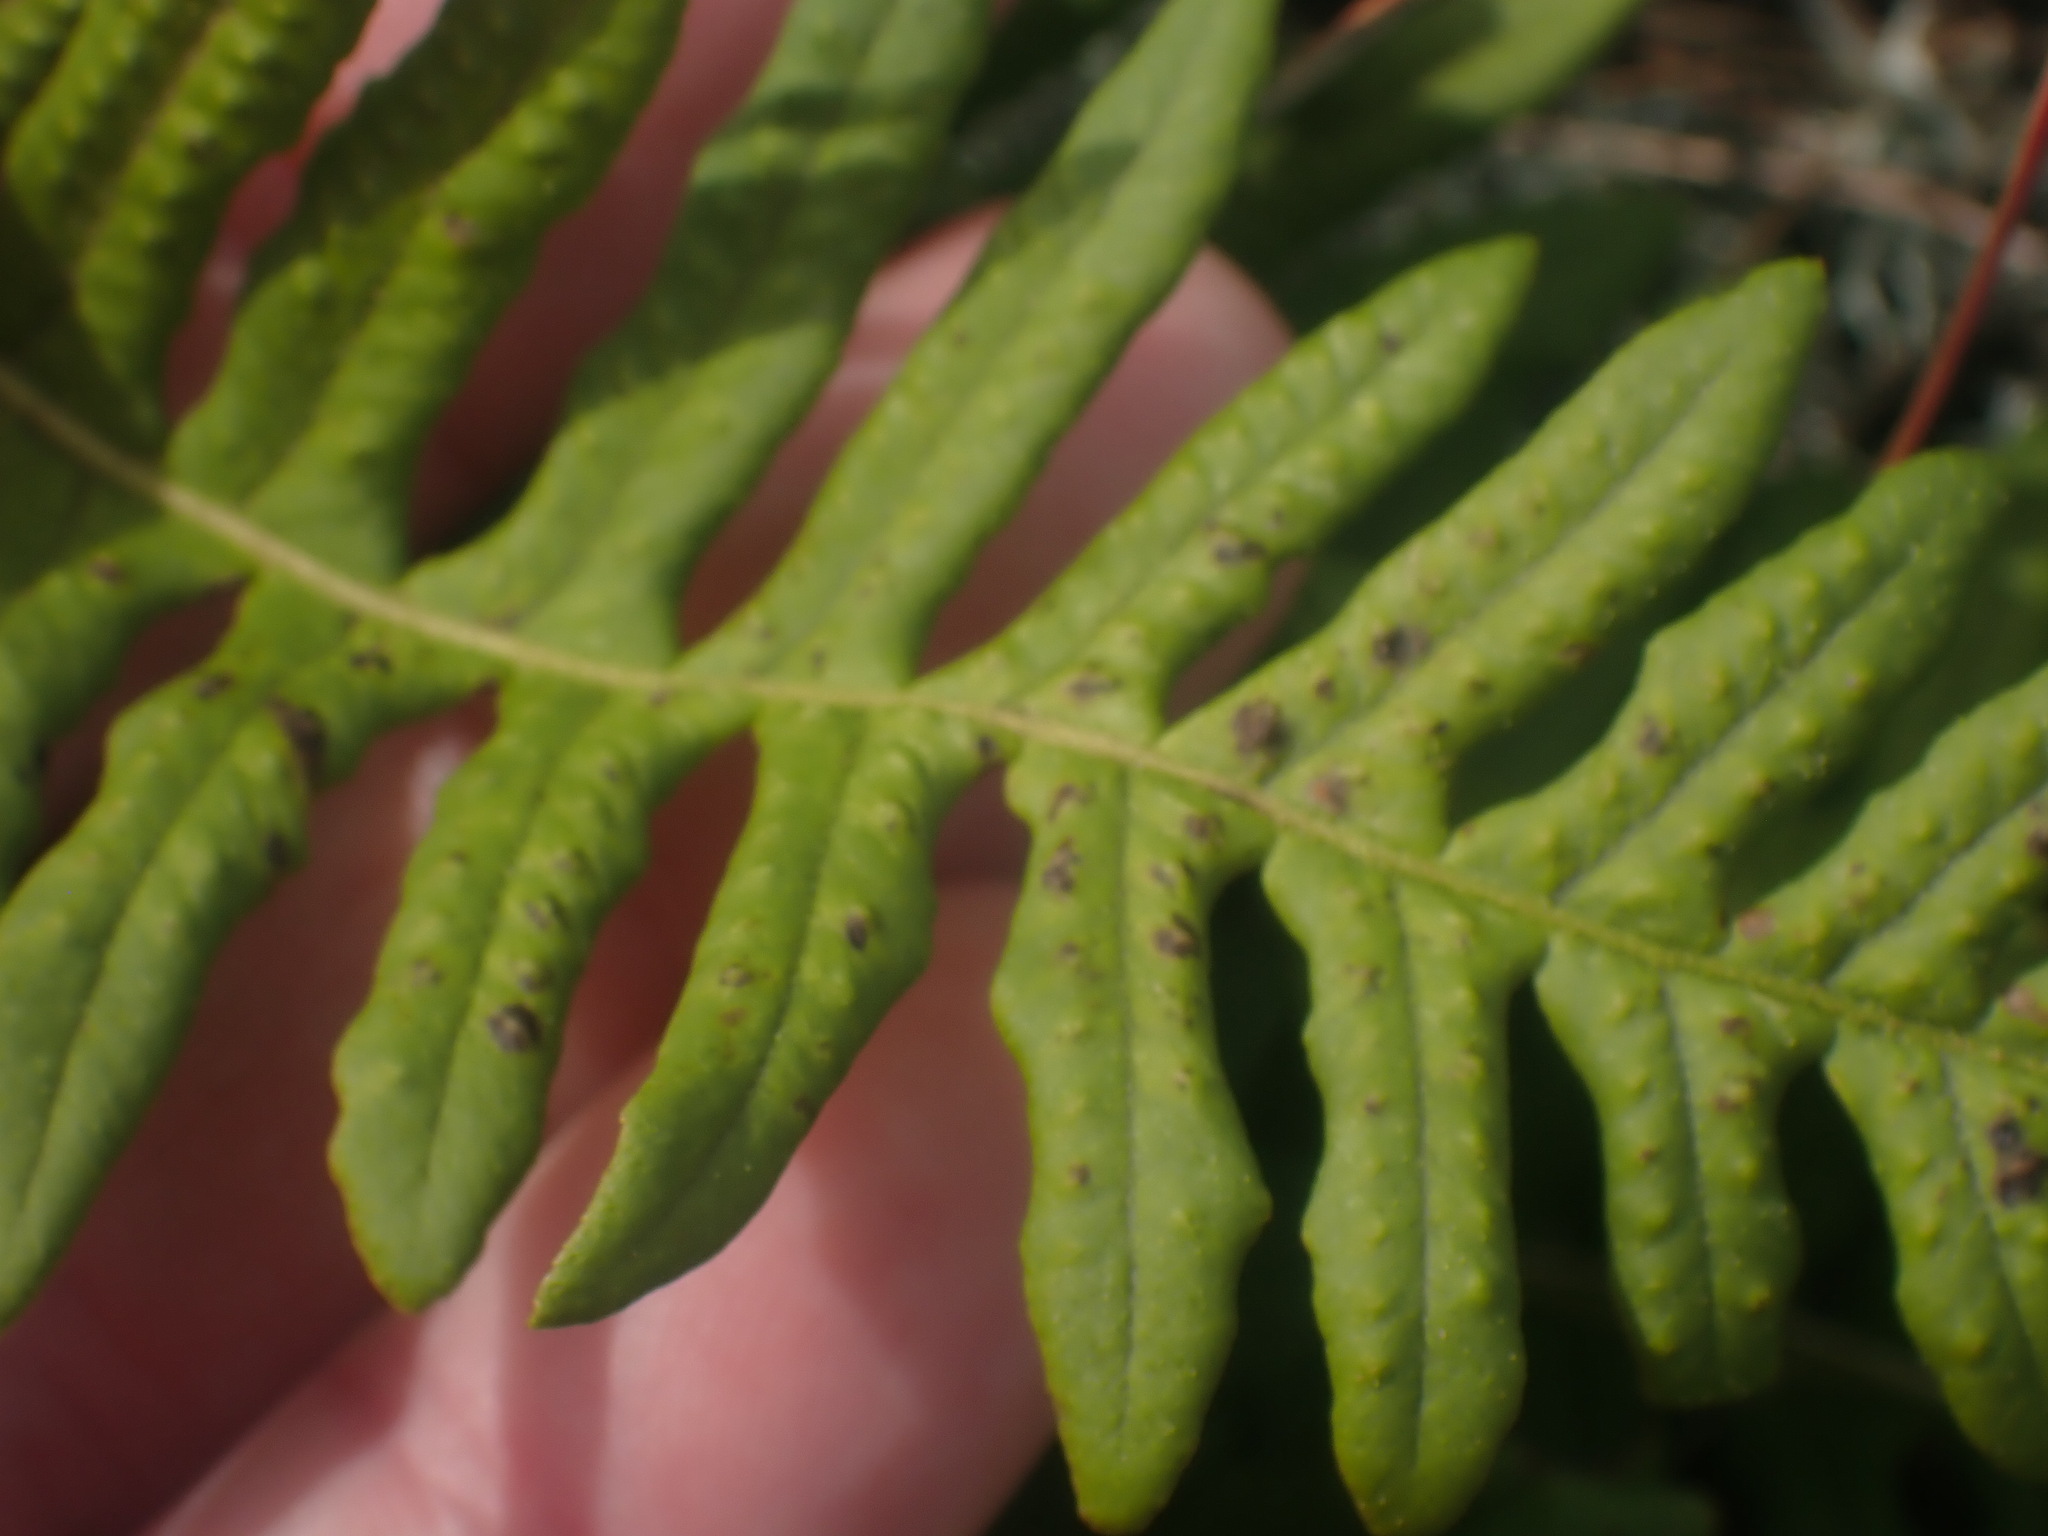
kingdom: Plantae
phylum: Tracheophyta
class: Polypodiopsida
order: Polypodiales
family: Polypodiaceae
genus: Polypodium
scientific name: Polypodium glycyrrhiza
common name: Licorice fern
